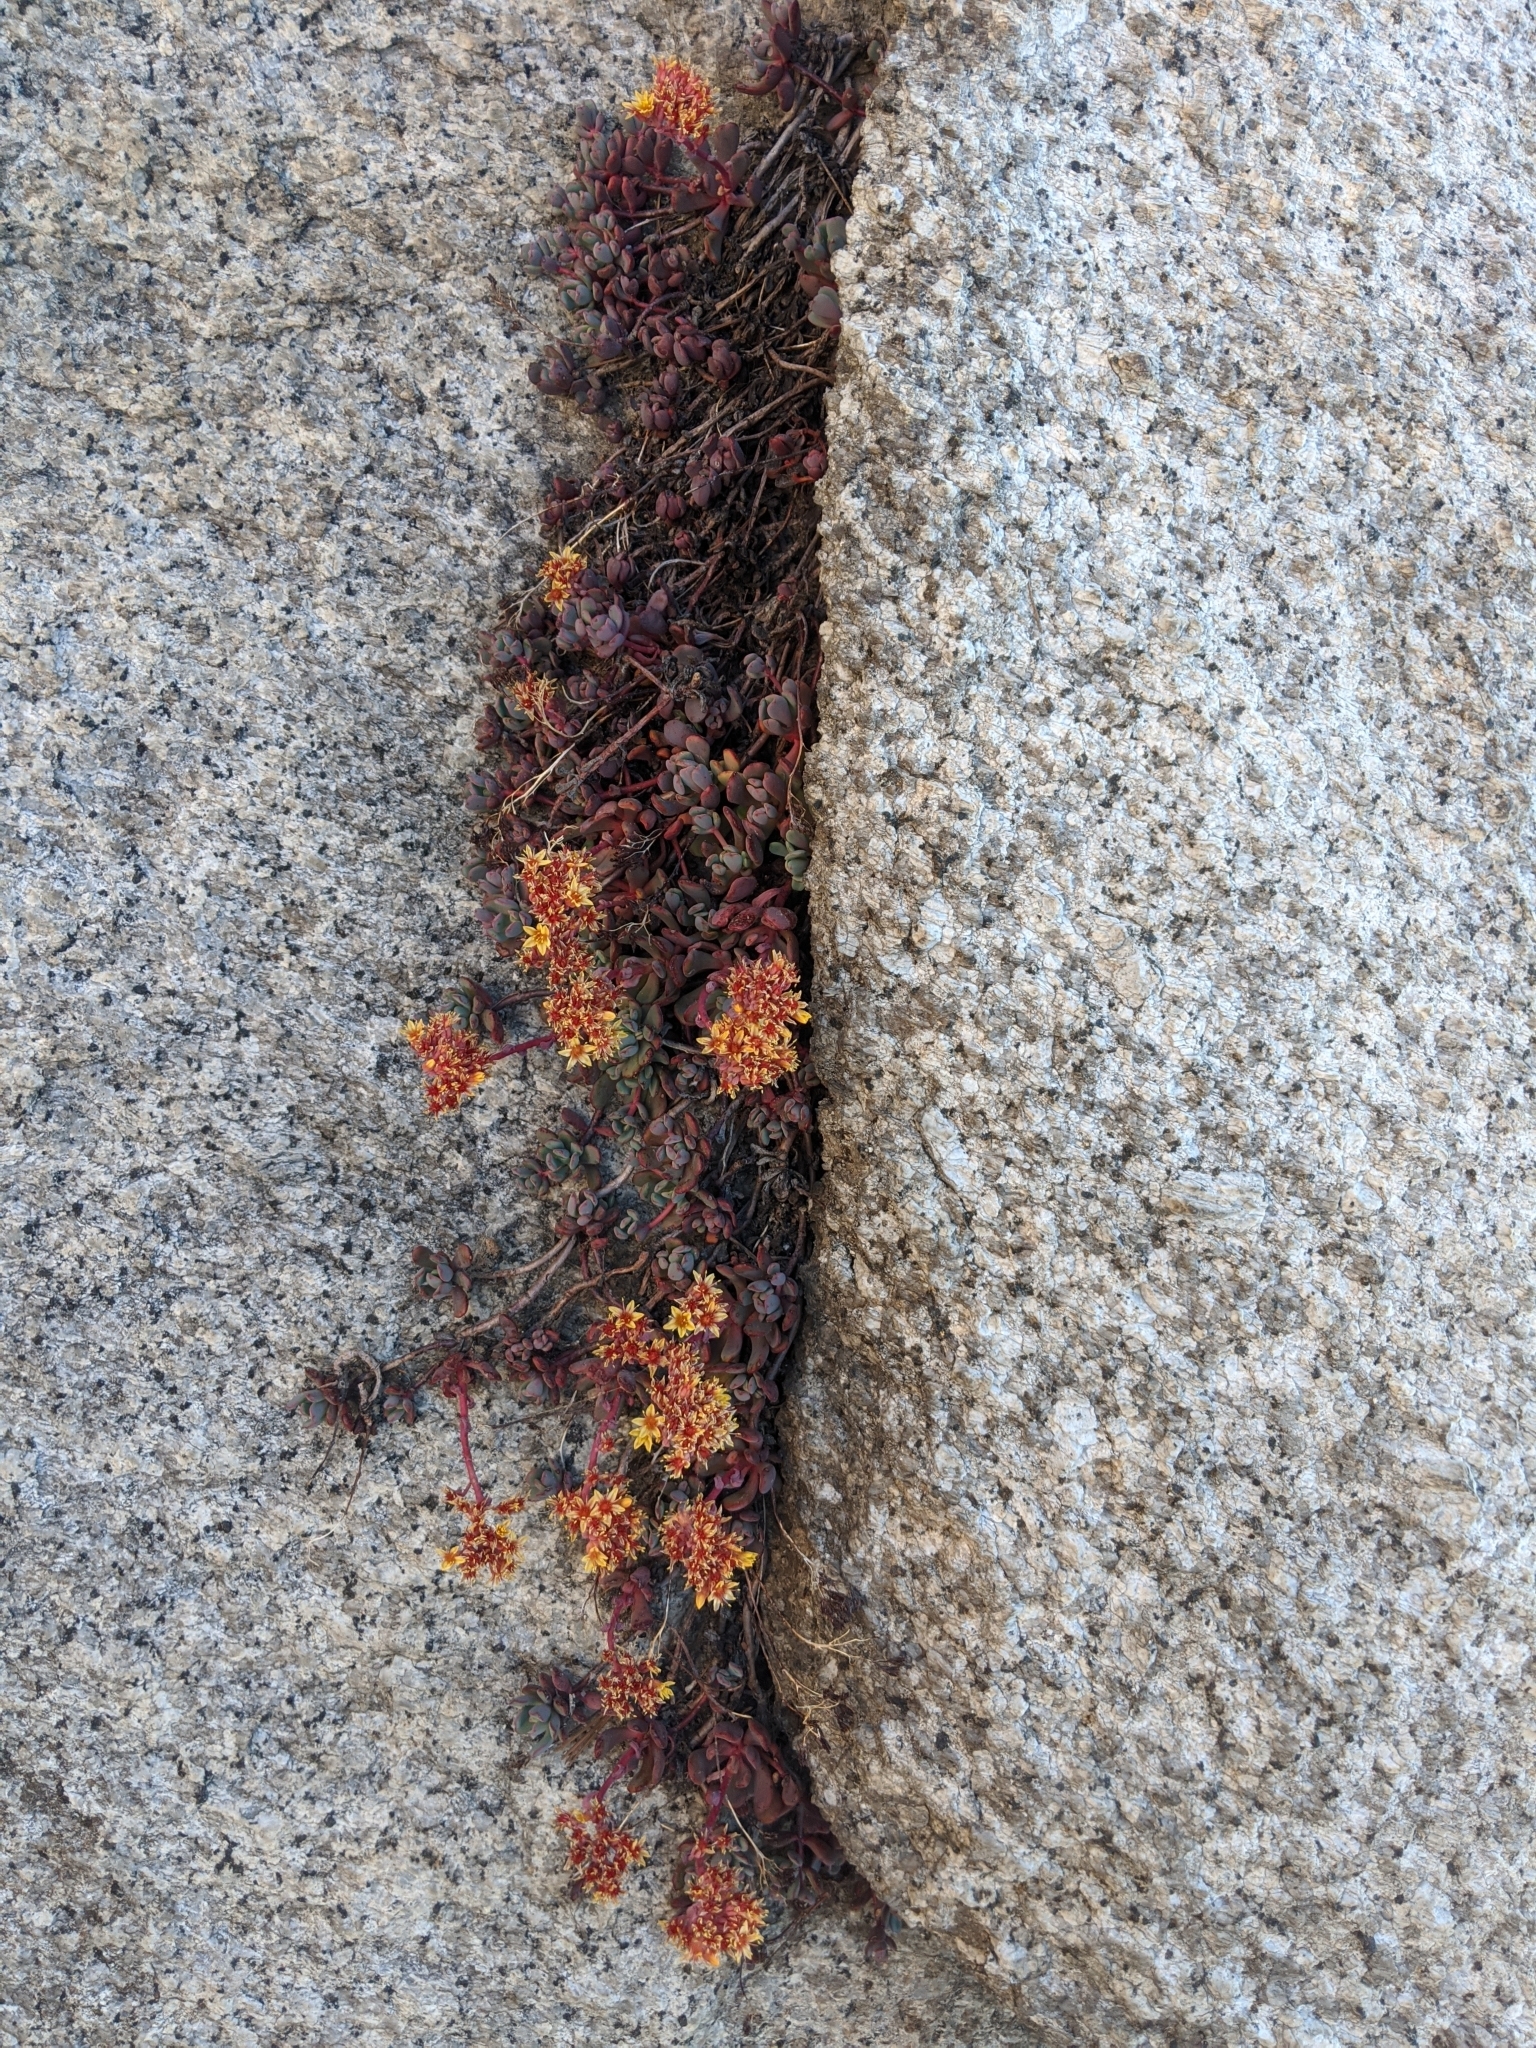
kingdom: Plantae
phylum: Tracheophyta
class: Magnoliopsida
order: Saxifragales
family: Crassulaceae
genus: Sedum
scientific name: Sedum obtusatum
